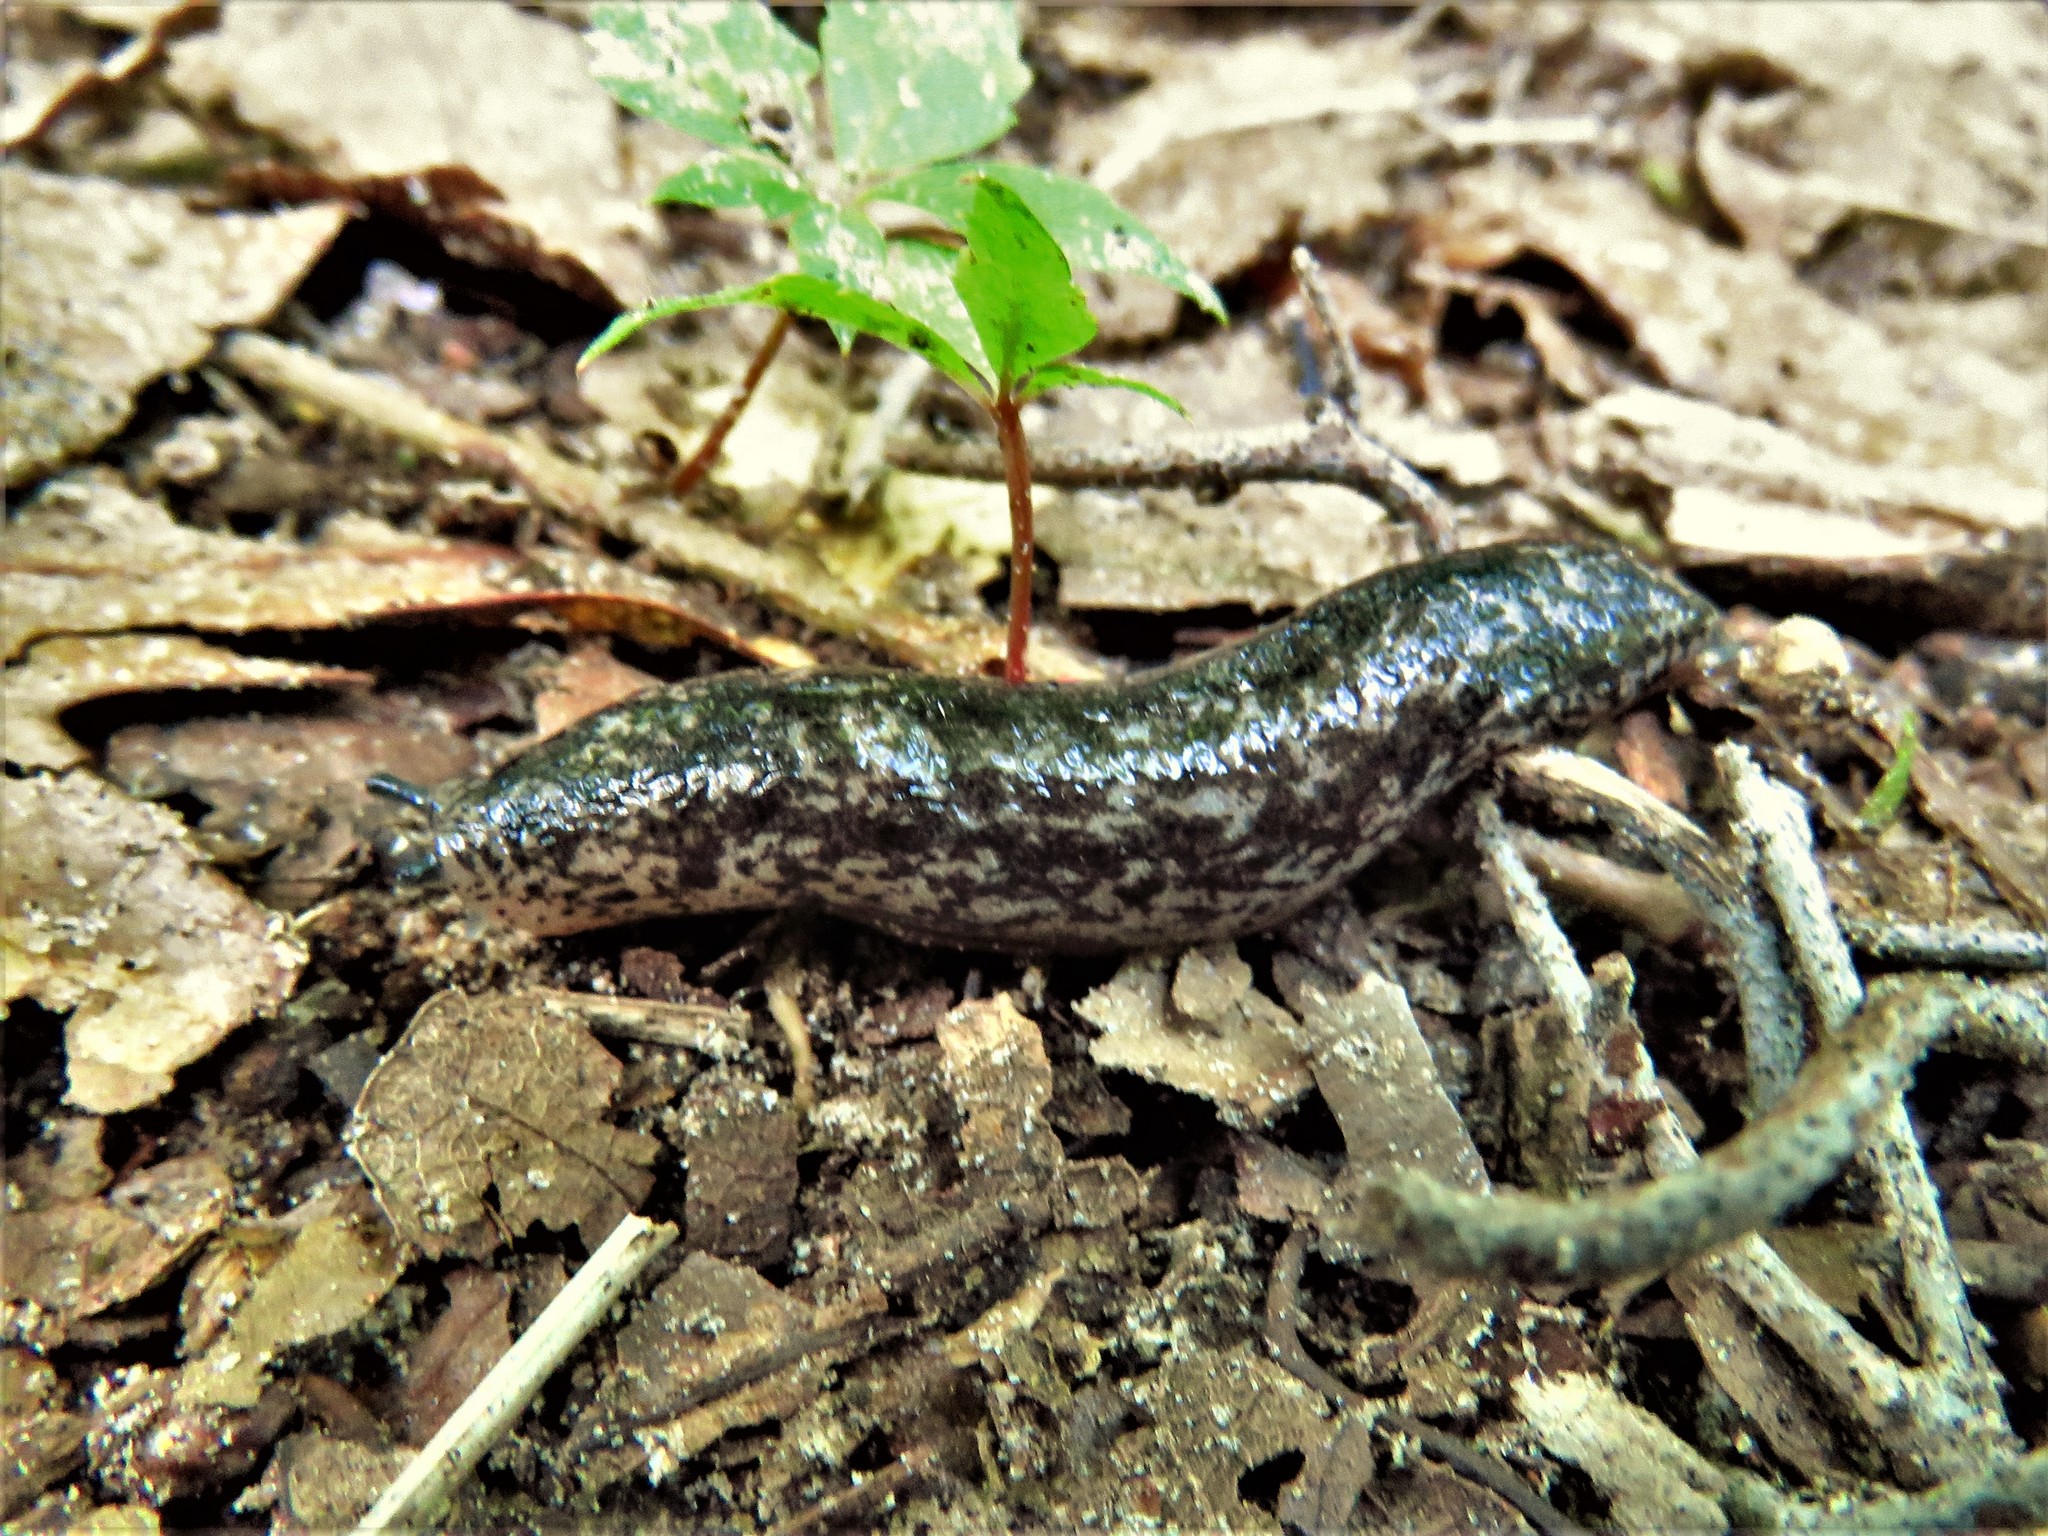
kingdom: Animalia
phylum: Mollusca
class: Gastropoda
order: Stylommatophora
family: Philomycidae
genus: Philomycus
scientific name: Philomycus carolinianus
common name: Carolina mantleslug
